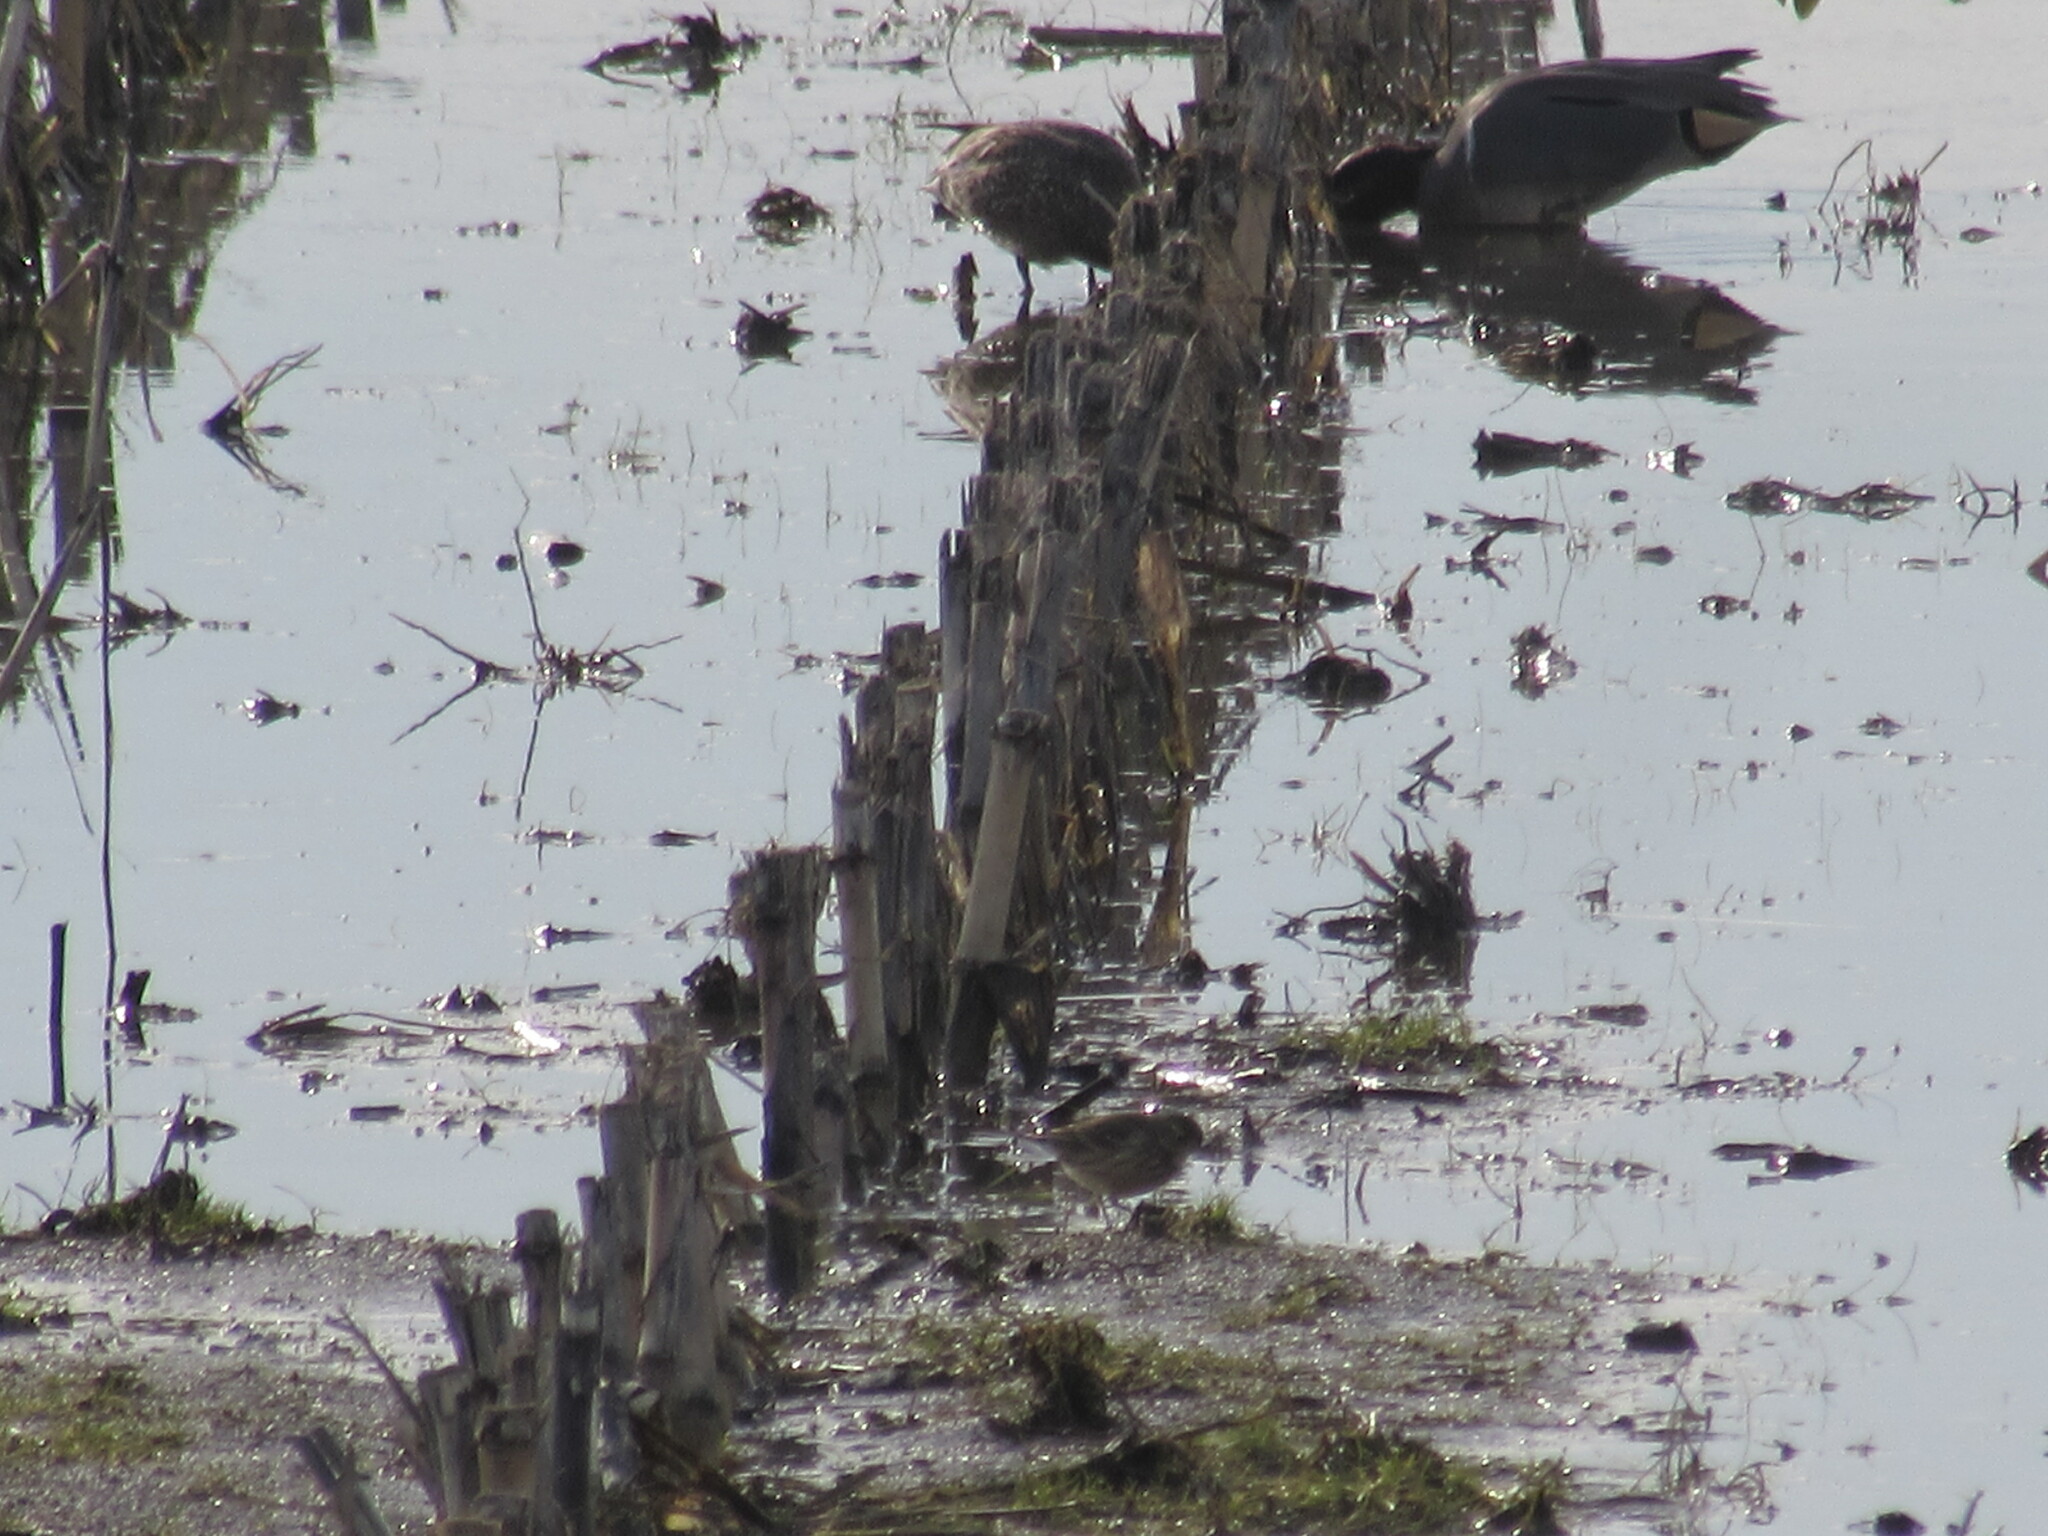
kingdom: Animalia
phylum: Chordata
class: Aves
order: Passeriformes
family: Motacillidae
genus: Anthus
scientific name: Anthus rubescens
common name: Buff-bellied pipit
